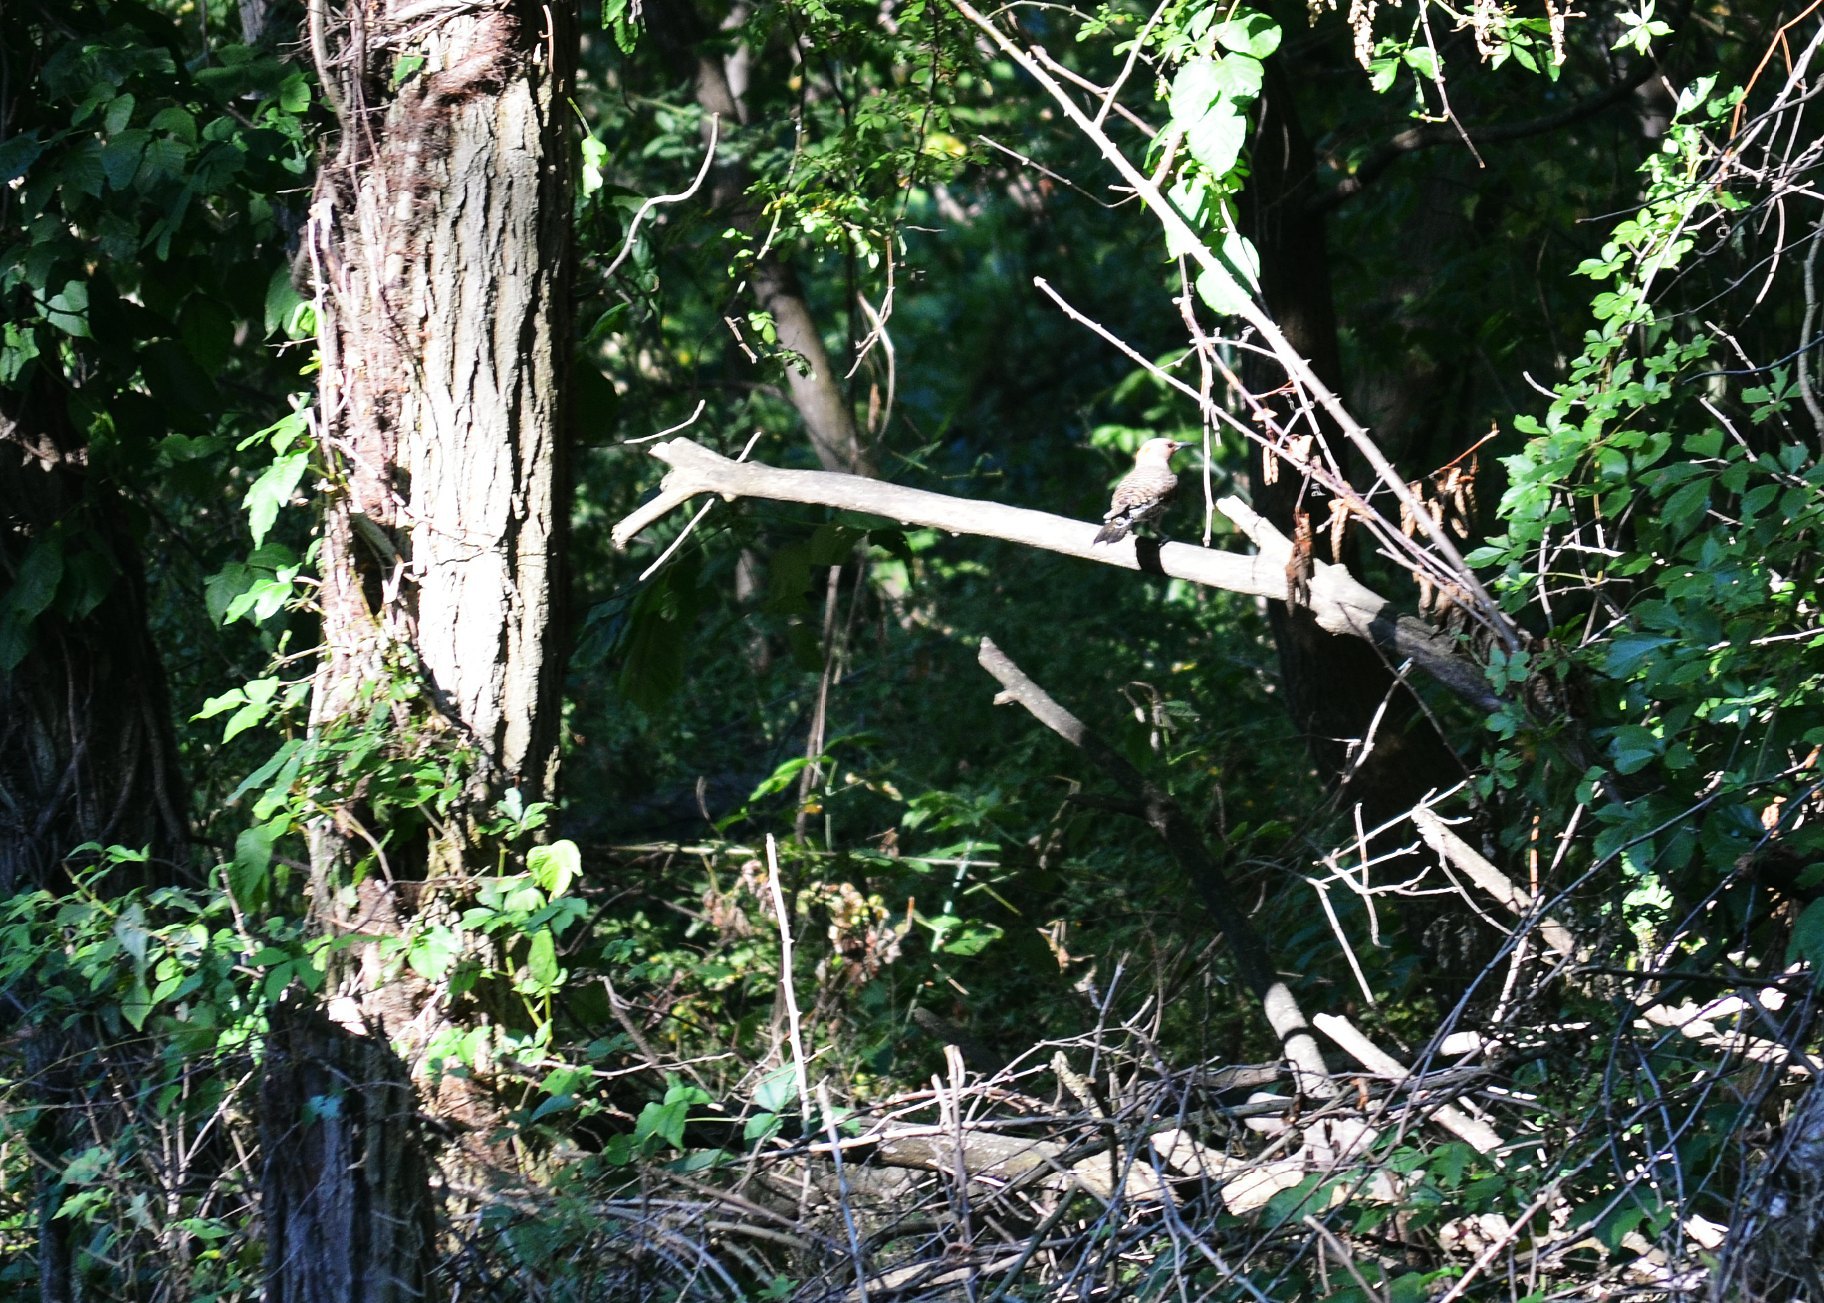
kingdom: Animalia
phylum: Chordata
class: Aves
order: Piciformes
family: Picidae
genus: Colaptes
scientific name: Colaptes auratus
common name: Northern flicker
